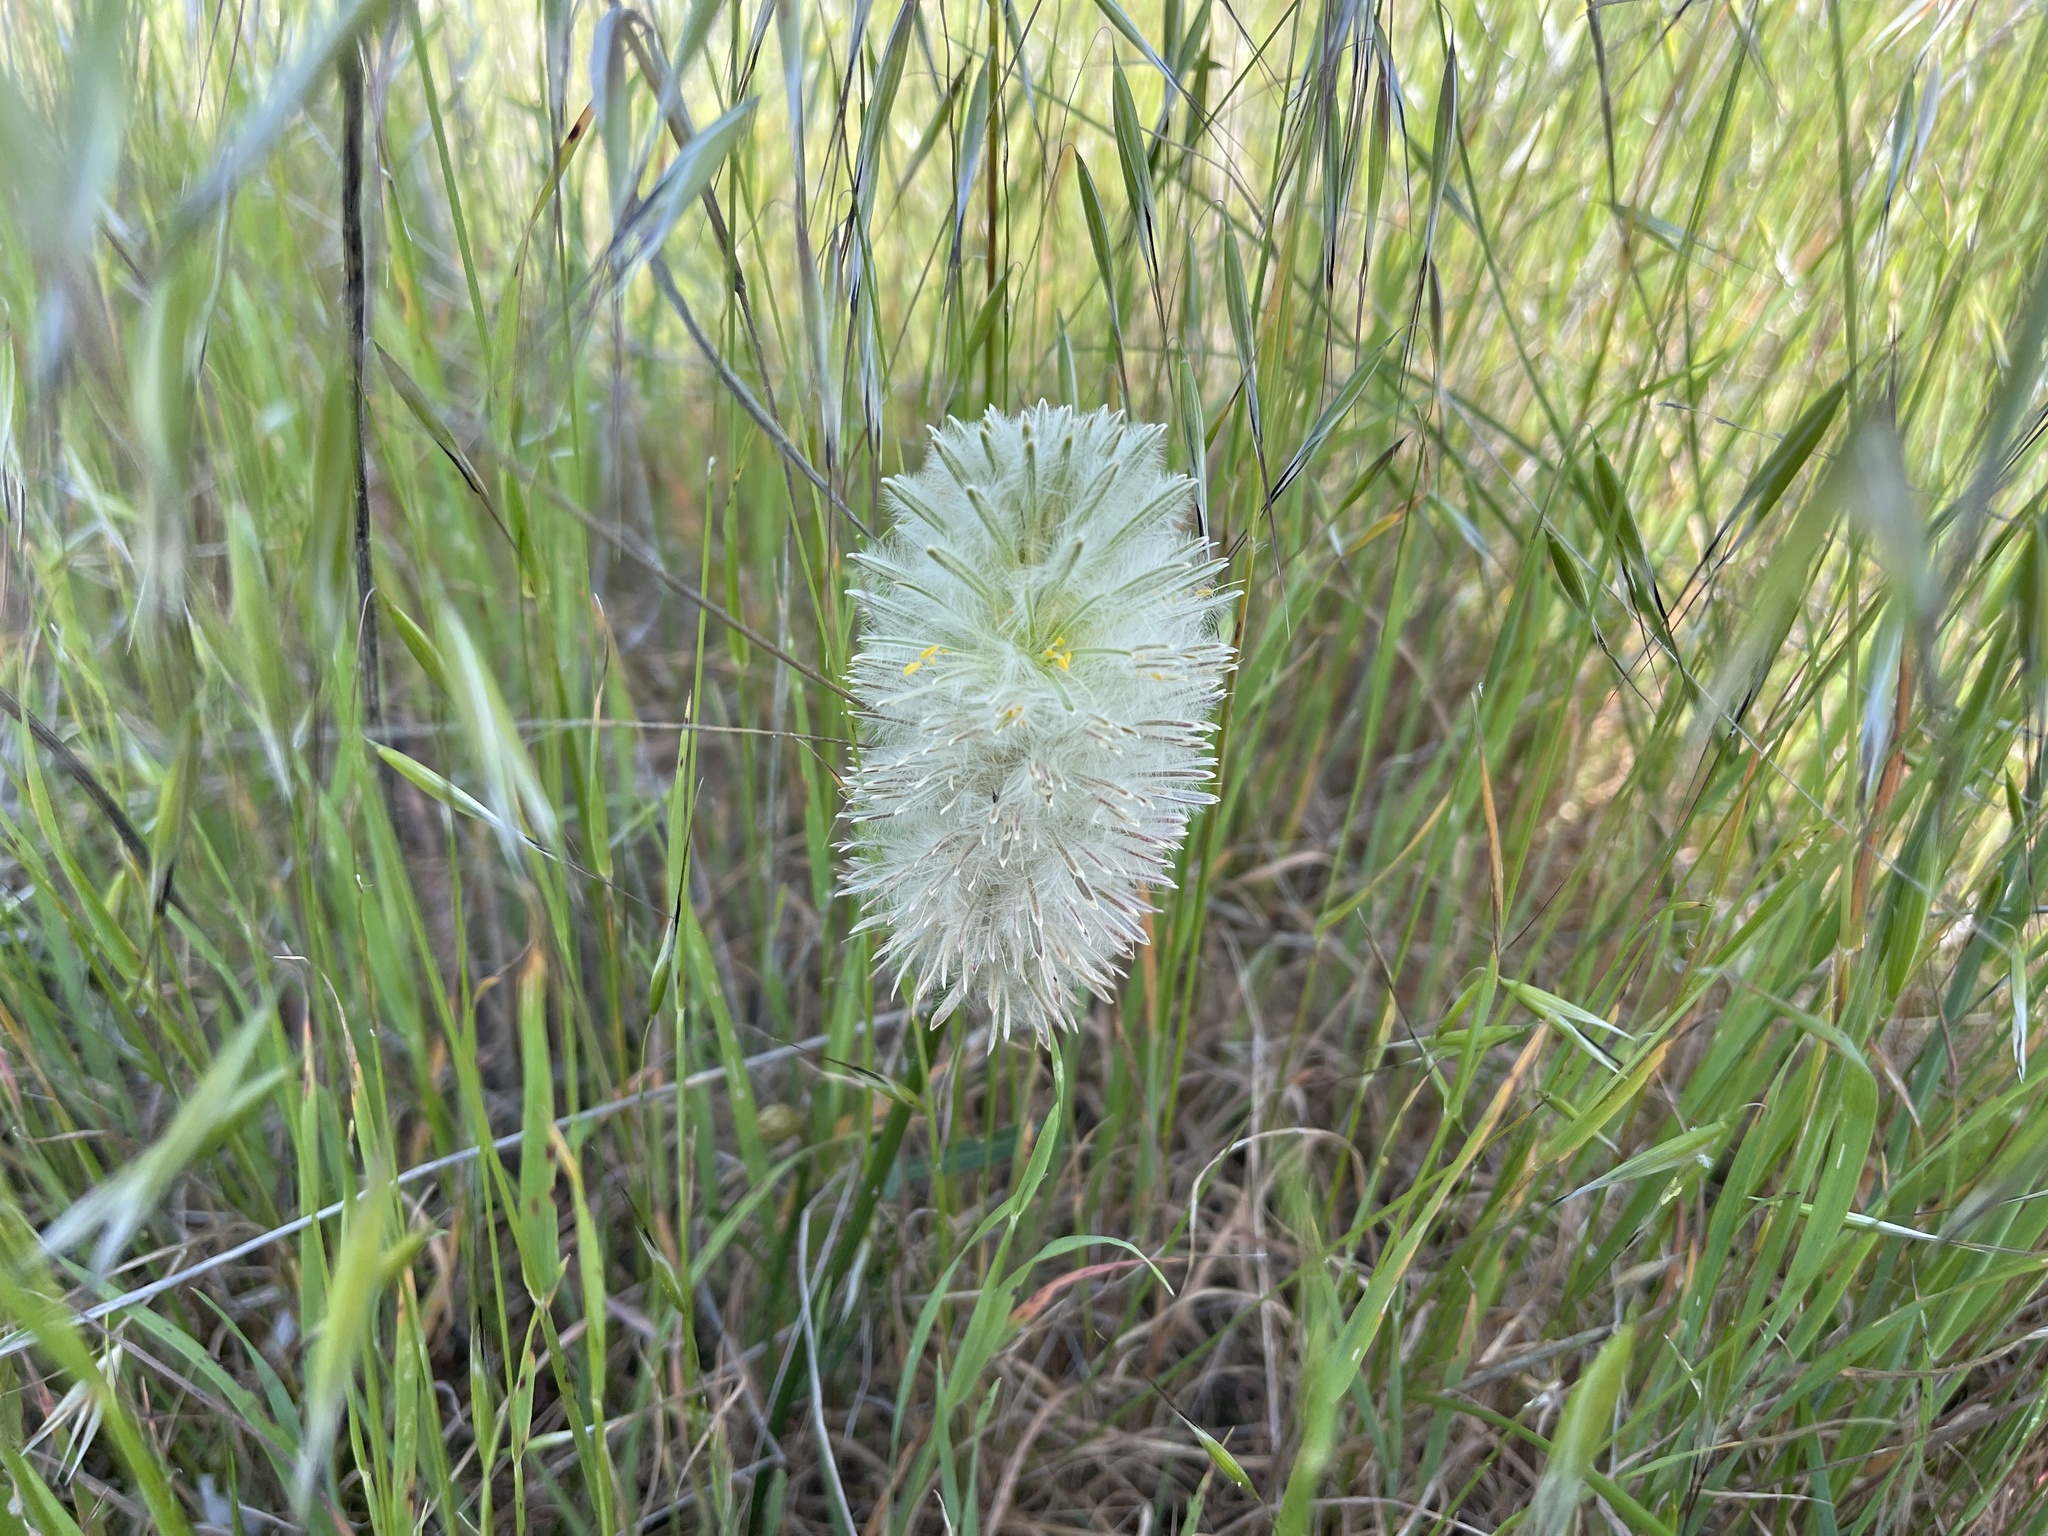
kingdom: Plantae
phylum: Tracheophyta
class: Magnoliopsida
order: Caryophyllales
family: Amaranthaceae
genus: Ptilotus
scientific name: Ptilotus macrocephalus
